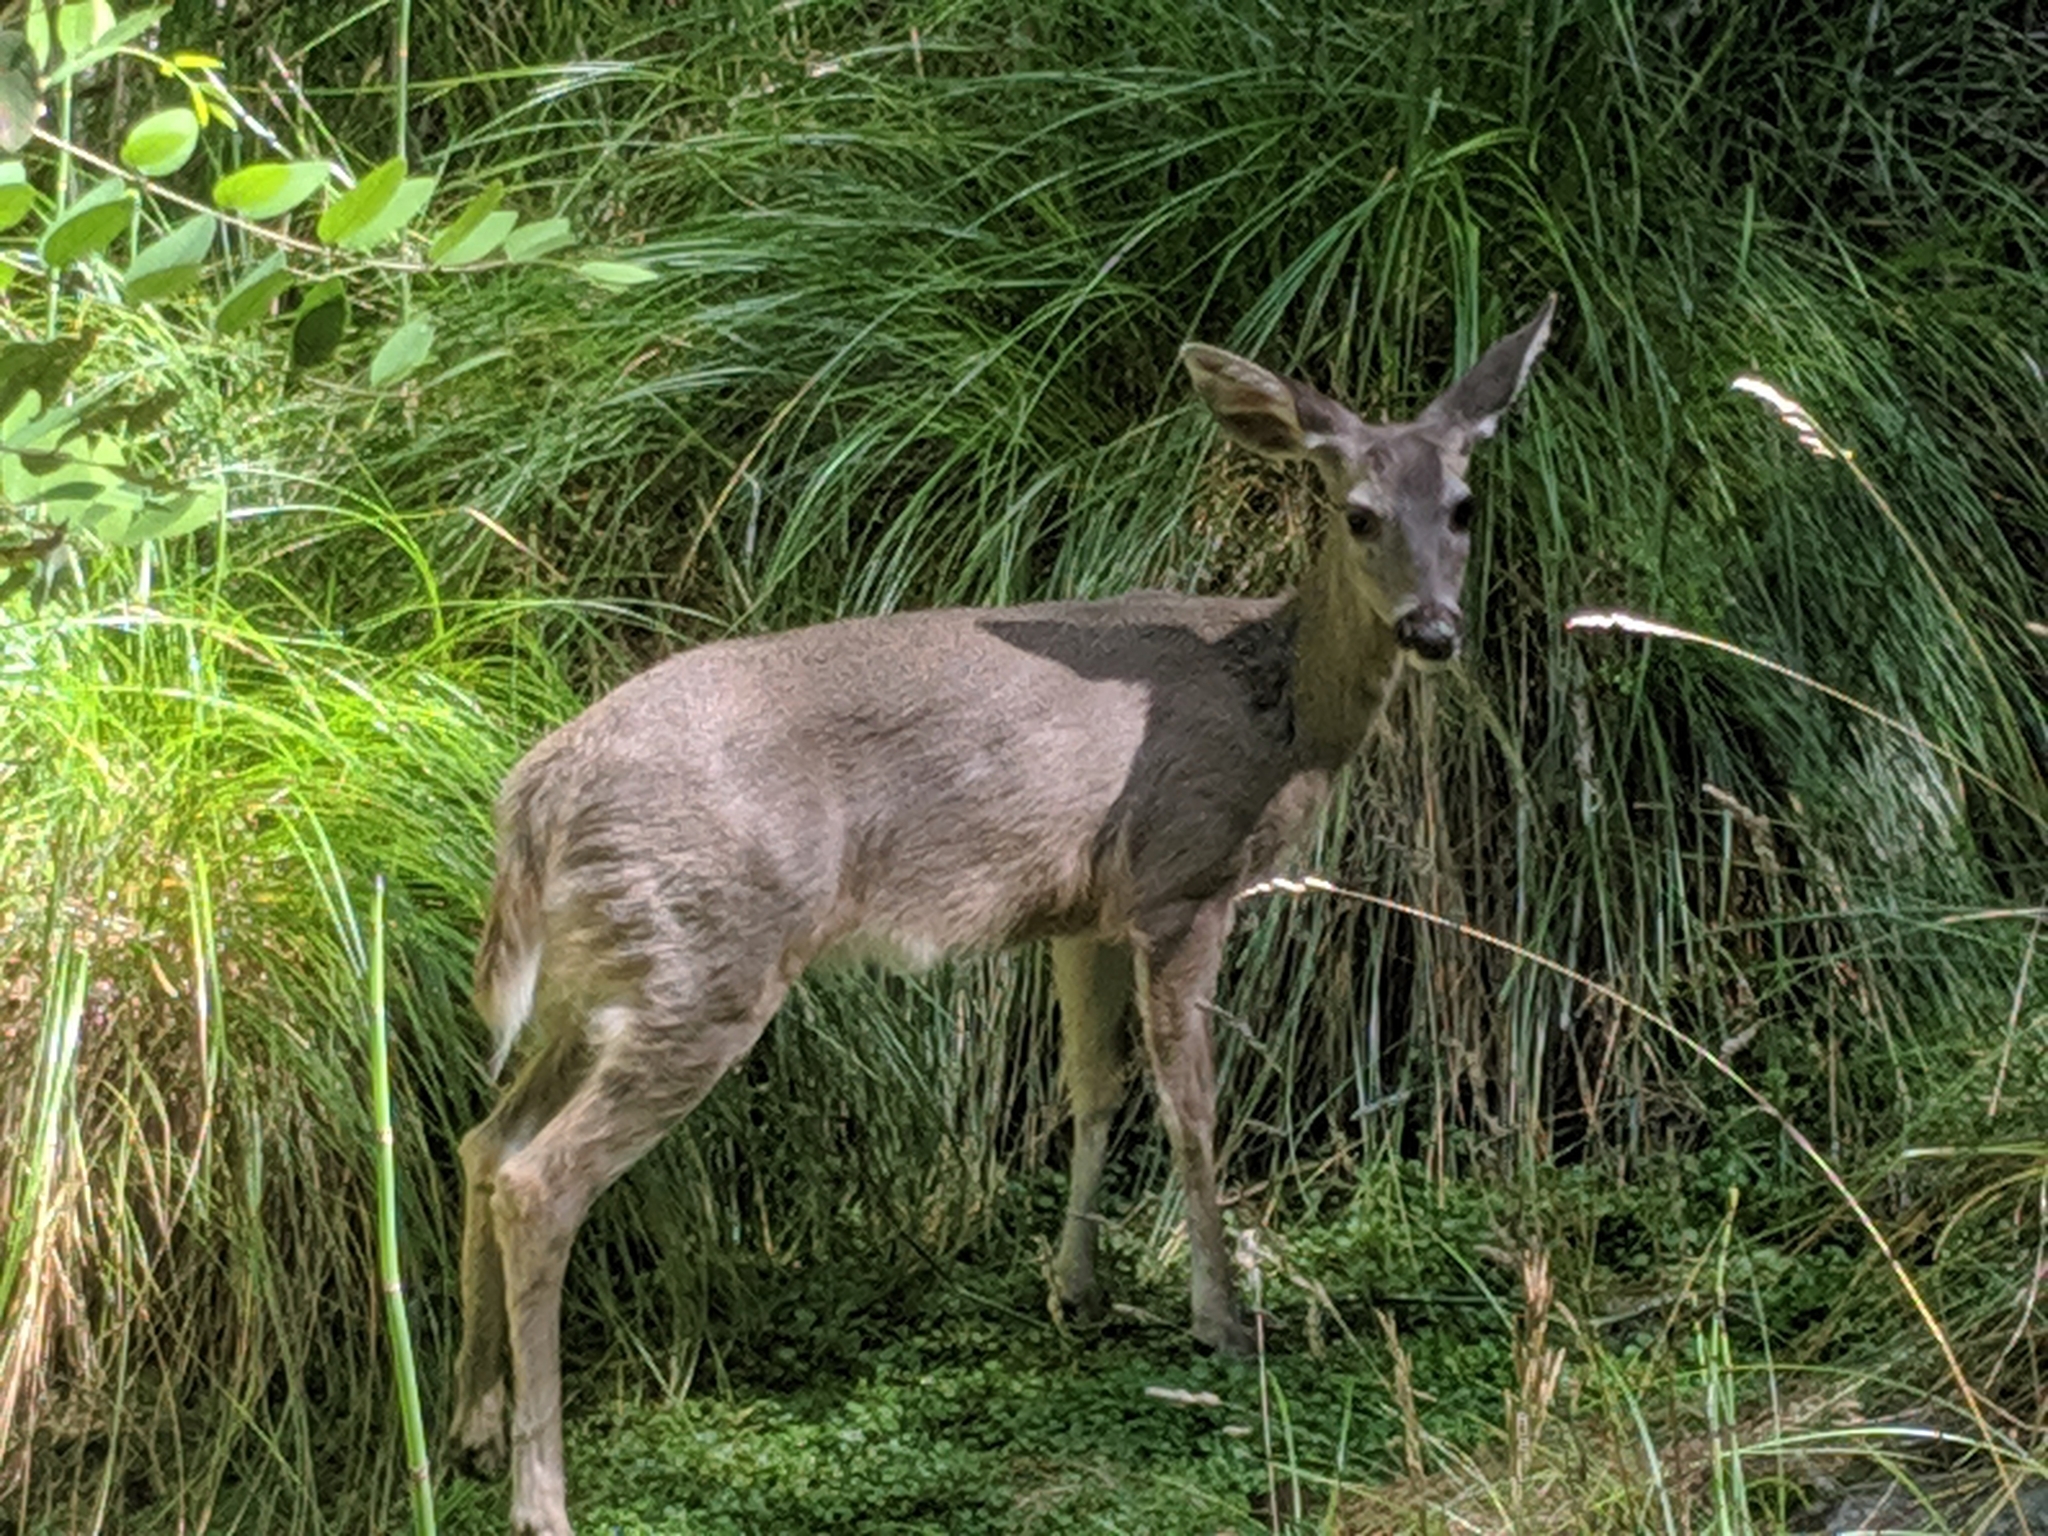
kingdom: Animalia
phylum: Chordata
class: Mammalia
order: Artiodactyla
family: Cervidae
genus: Odocoileus
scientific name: Odocoileus virginianus
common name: White-tailed deer
